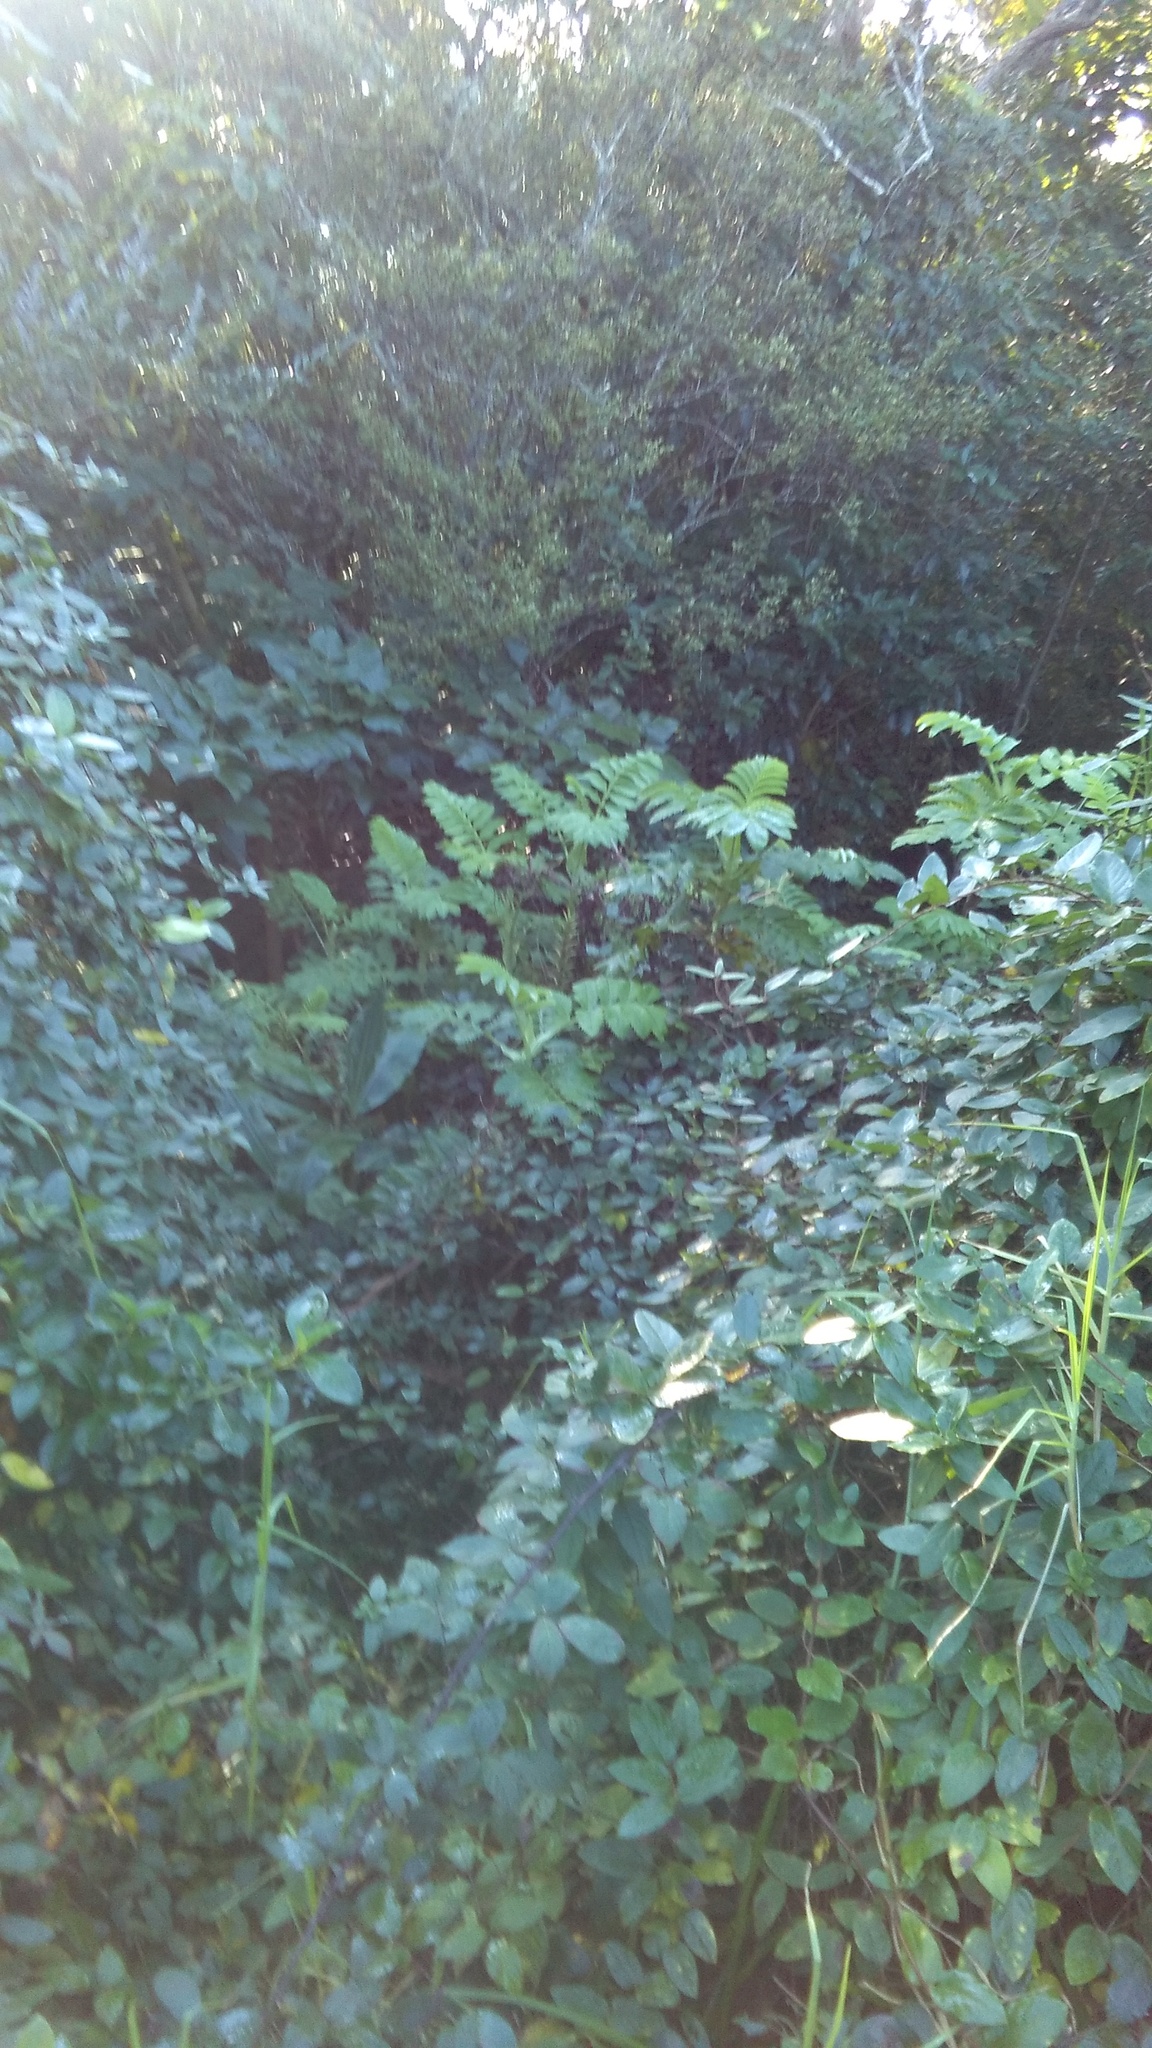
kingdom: Plantae
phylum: Tracheophyta
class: Magnoliopsida
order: Geraniales
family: Melianthaceae
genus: Melianthus
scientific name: Melianthus major
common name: Honey-flower
